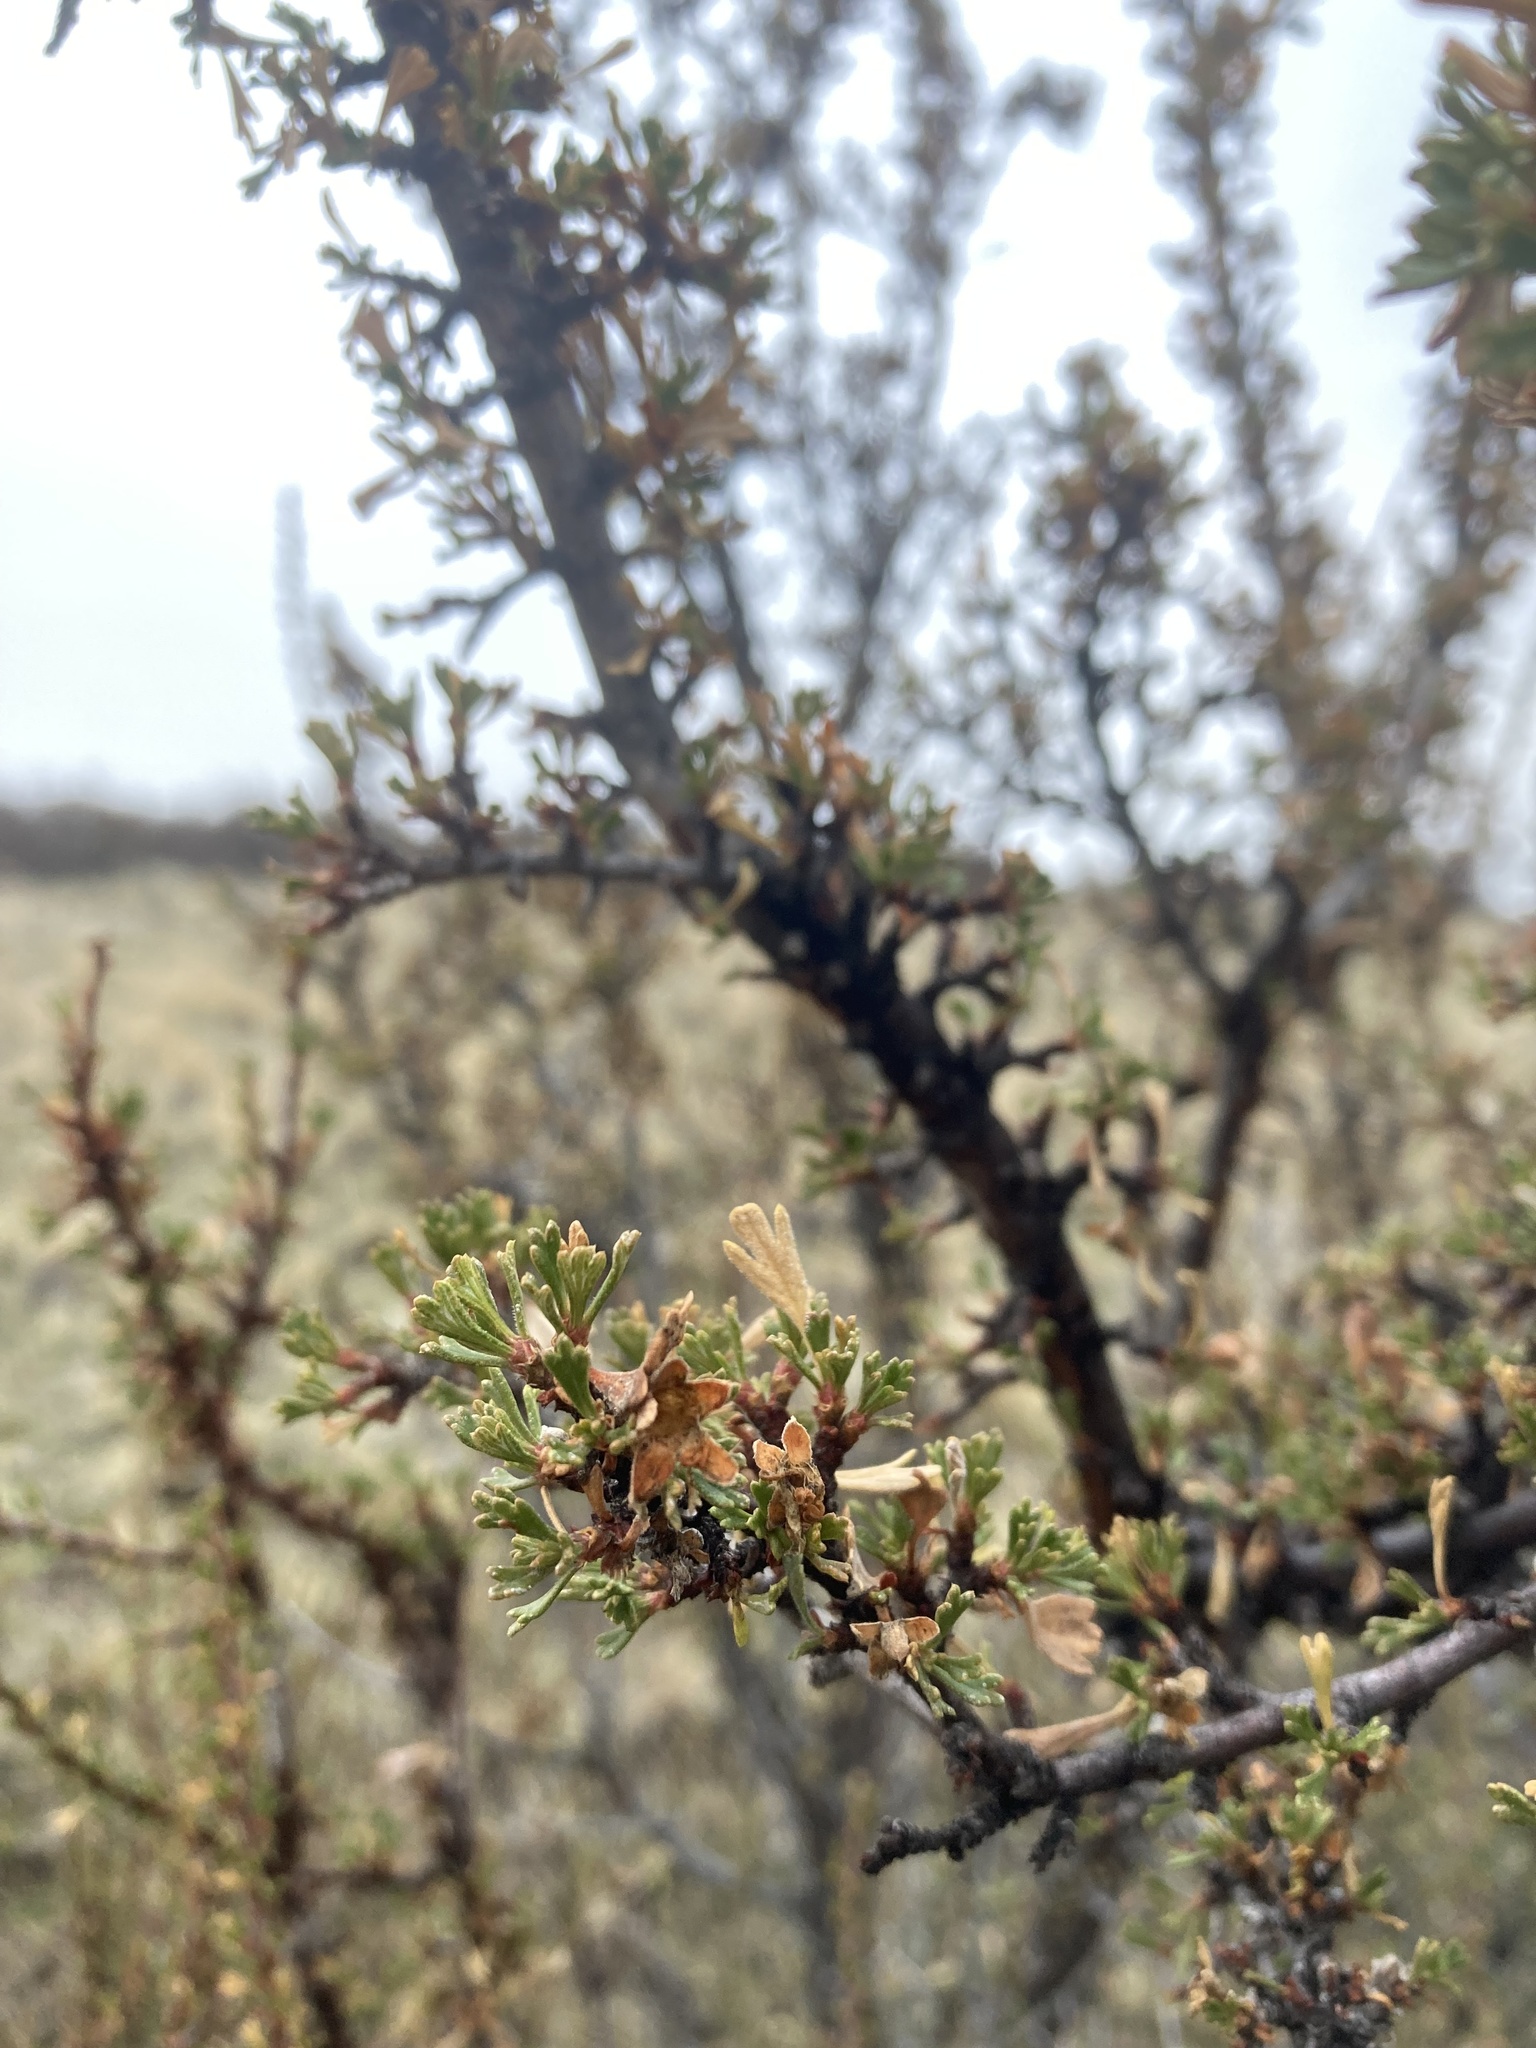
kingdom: Plantae
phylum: Tracheophyta
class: Magnoliopsida
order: Rosales
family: Rosaceae
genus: Purshia
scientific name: Purshia tridentata
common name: Antelope bitterbrush
